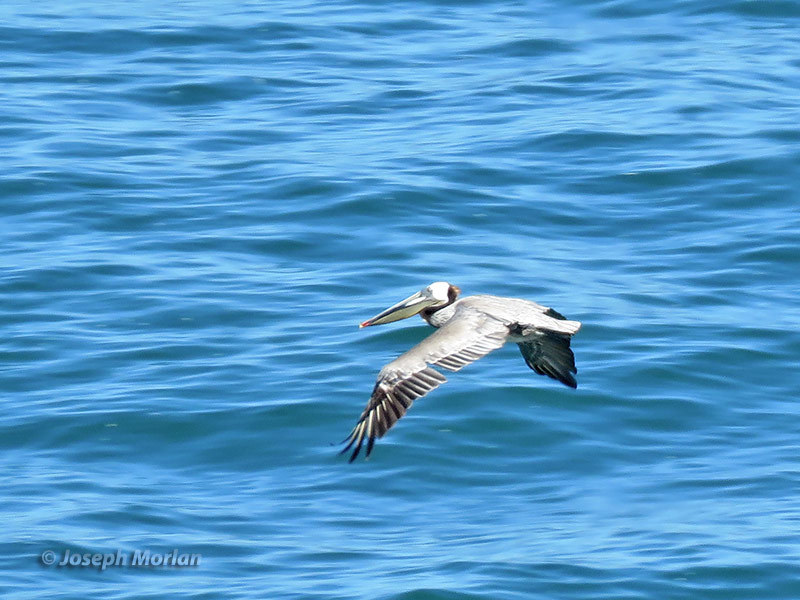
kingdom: Animalia
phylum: Chordata
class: Aves
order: Pelecaniformes
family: Pelecanidae
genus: Pelecanus
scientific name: Pelecanus occidentalis
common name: Brown pelican
